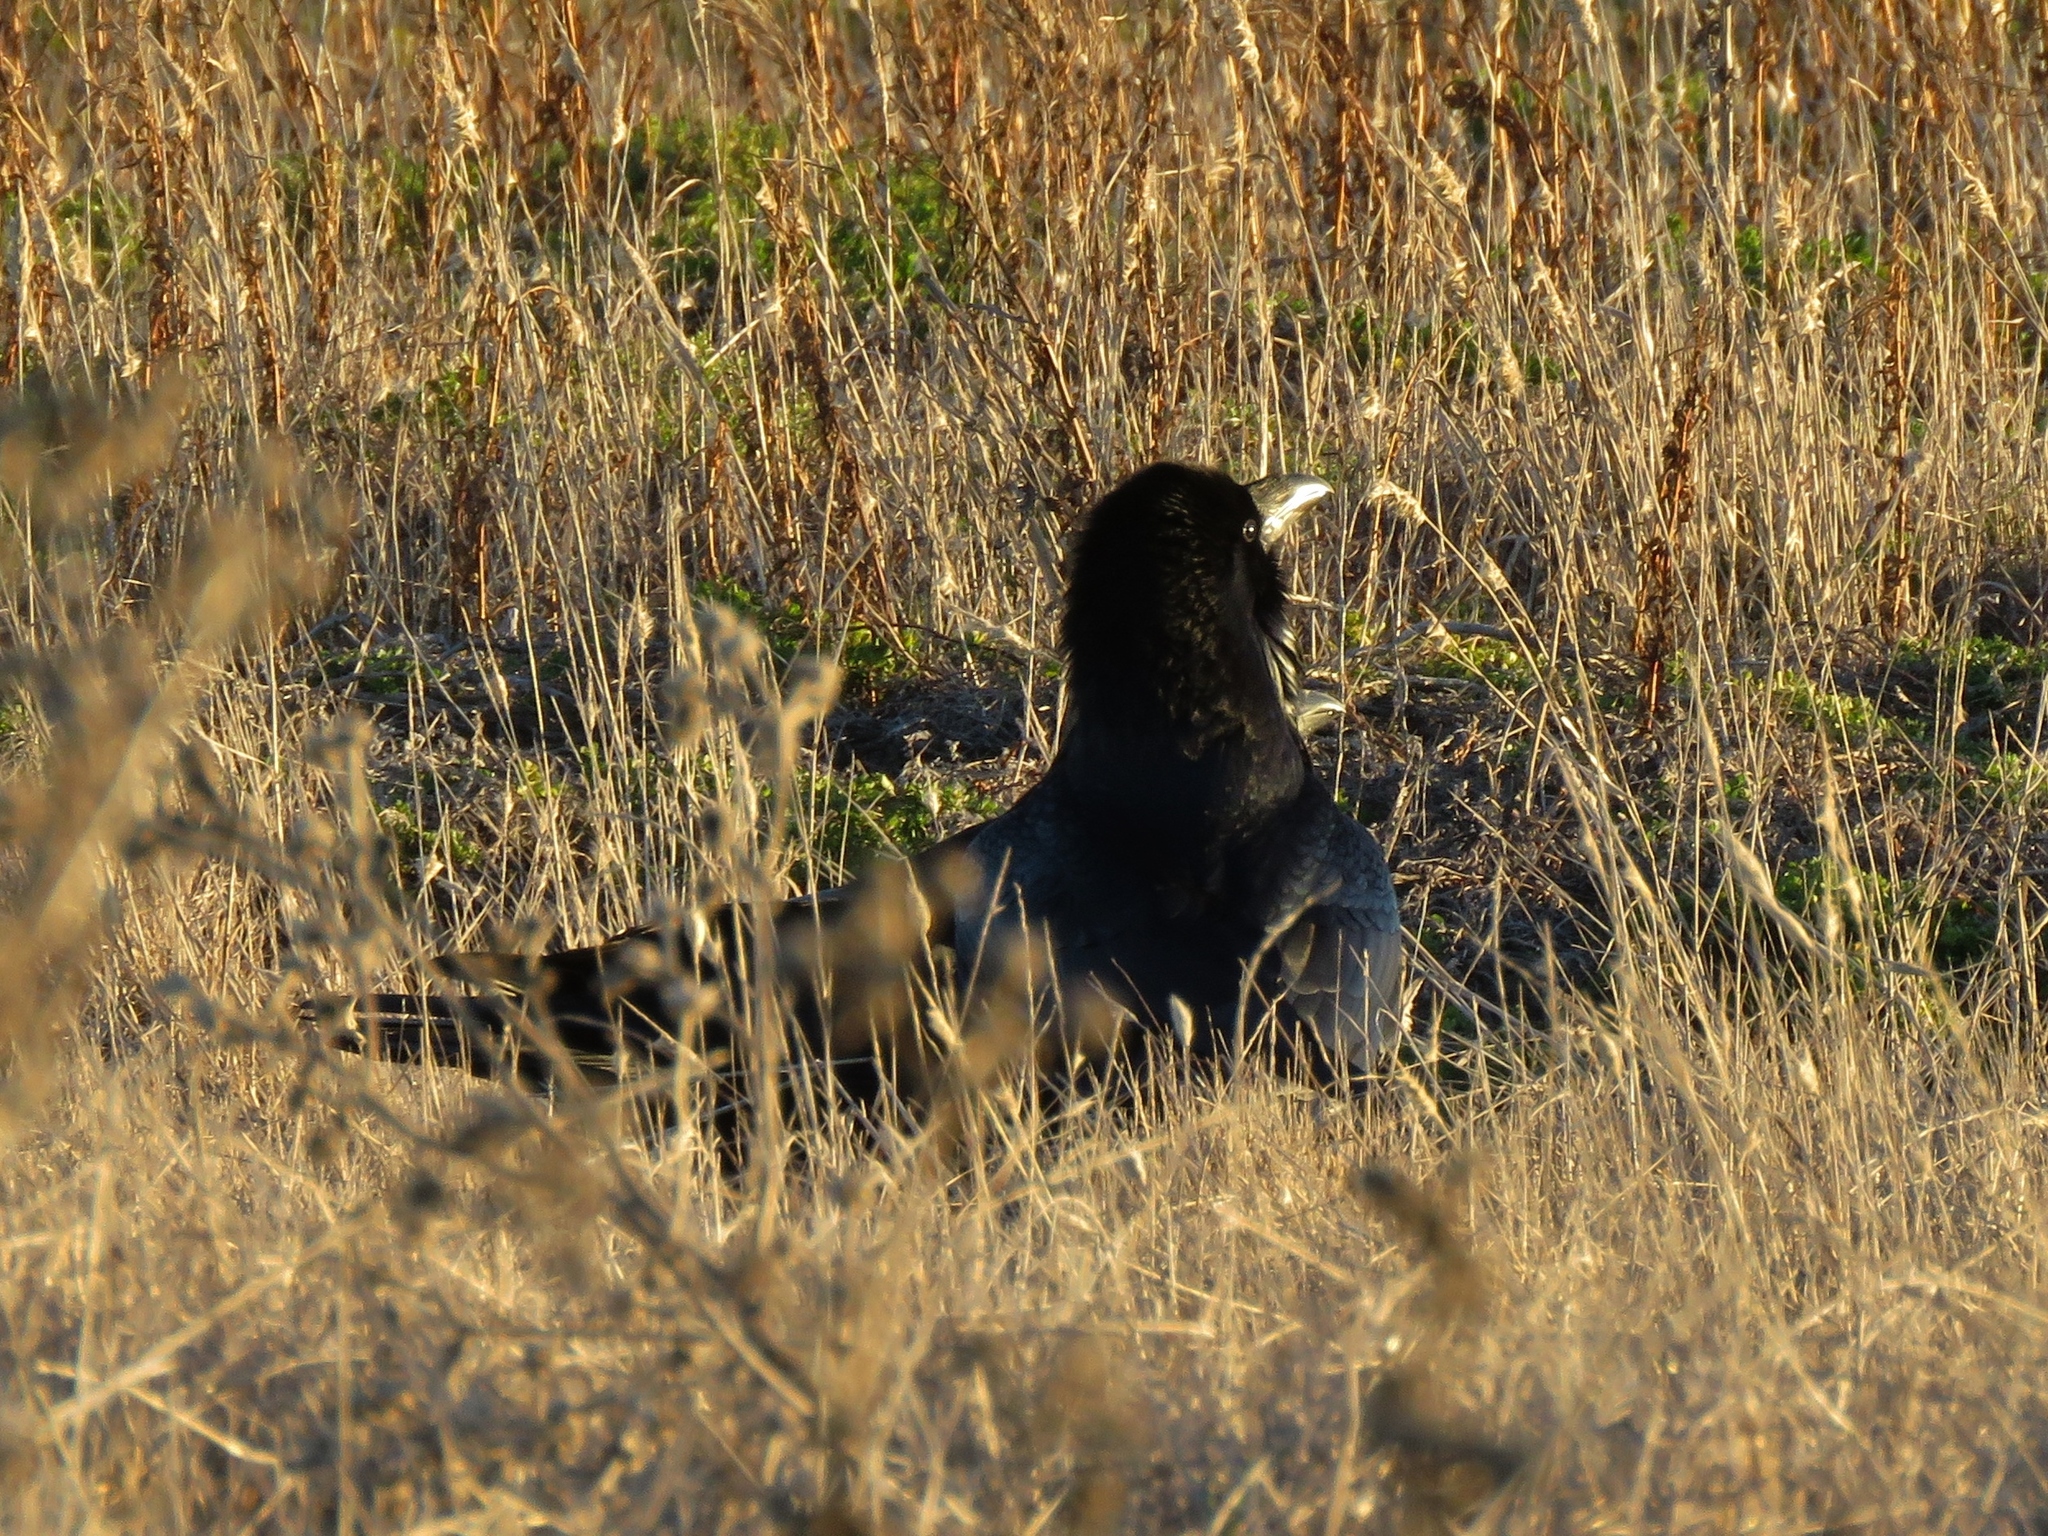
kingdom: Animalia
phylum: Chordata
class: Aves
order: Passeriformes
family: Corvidae
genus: Corvus
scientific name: Corvus brachyrhynchos
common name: American crow
